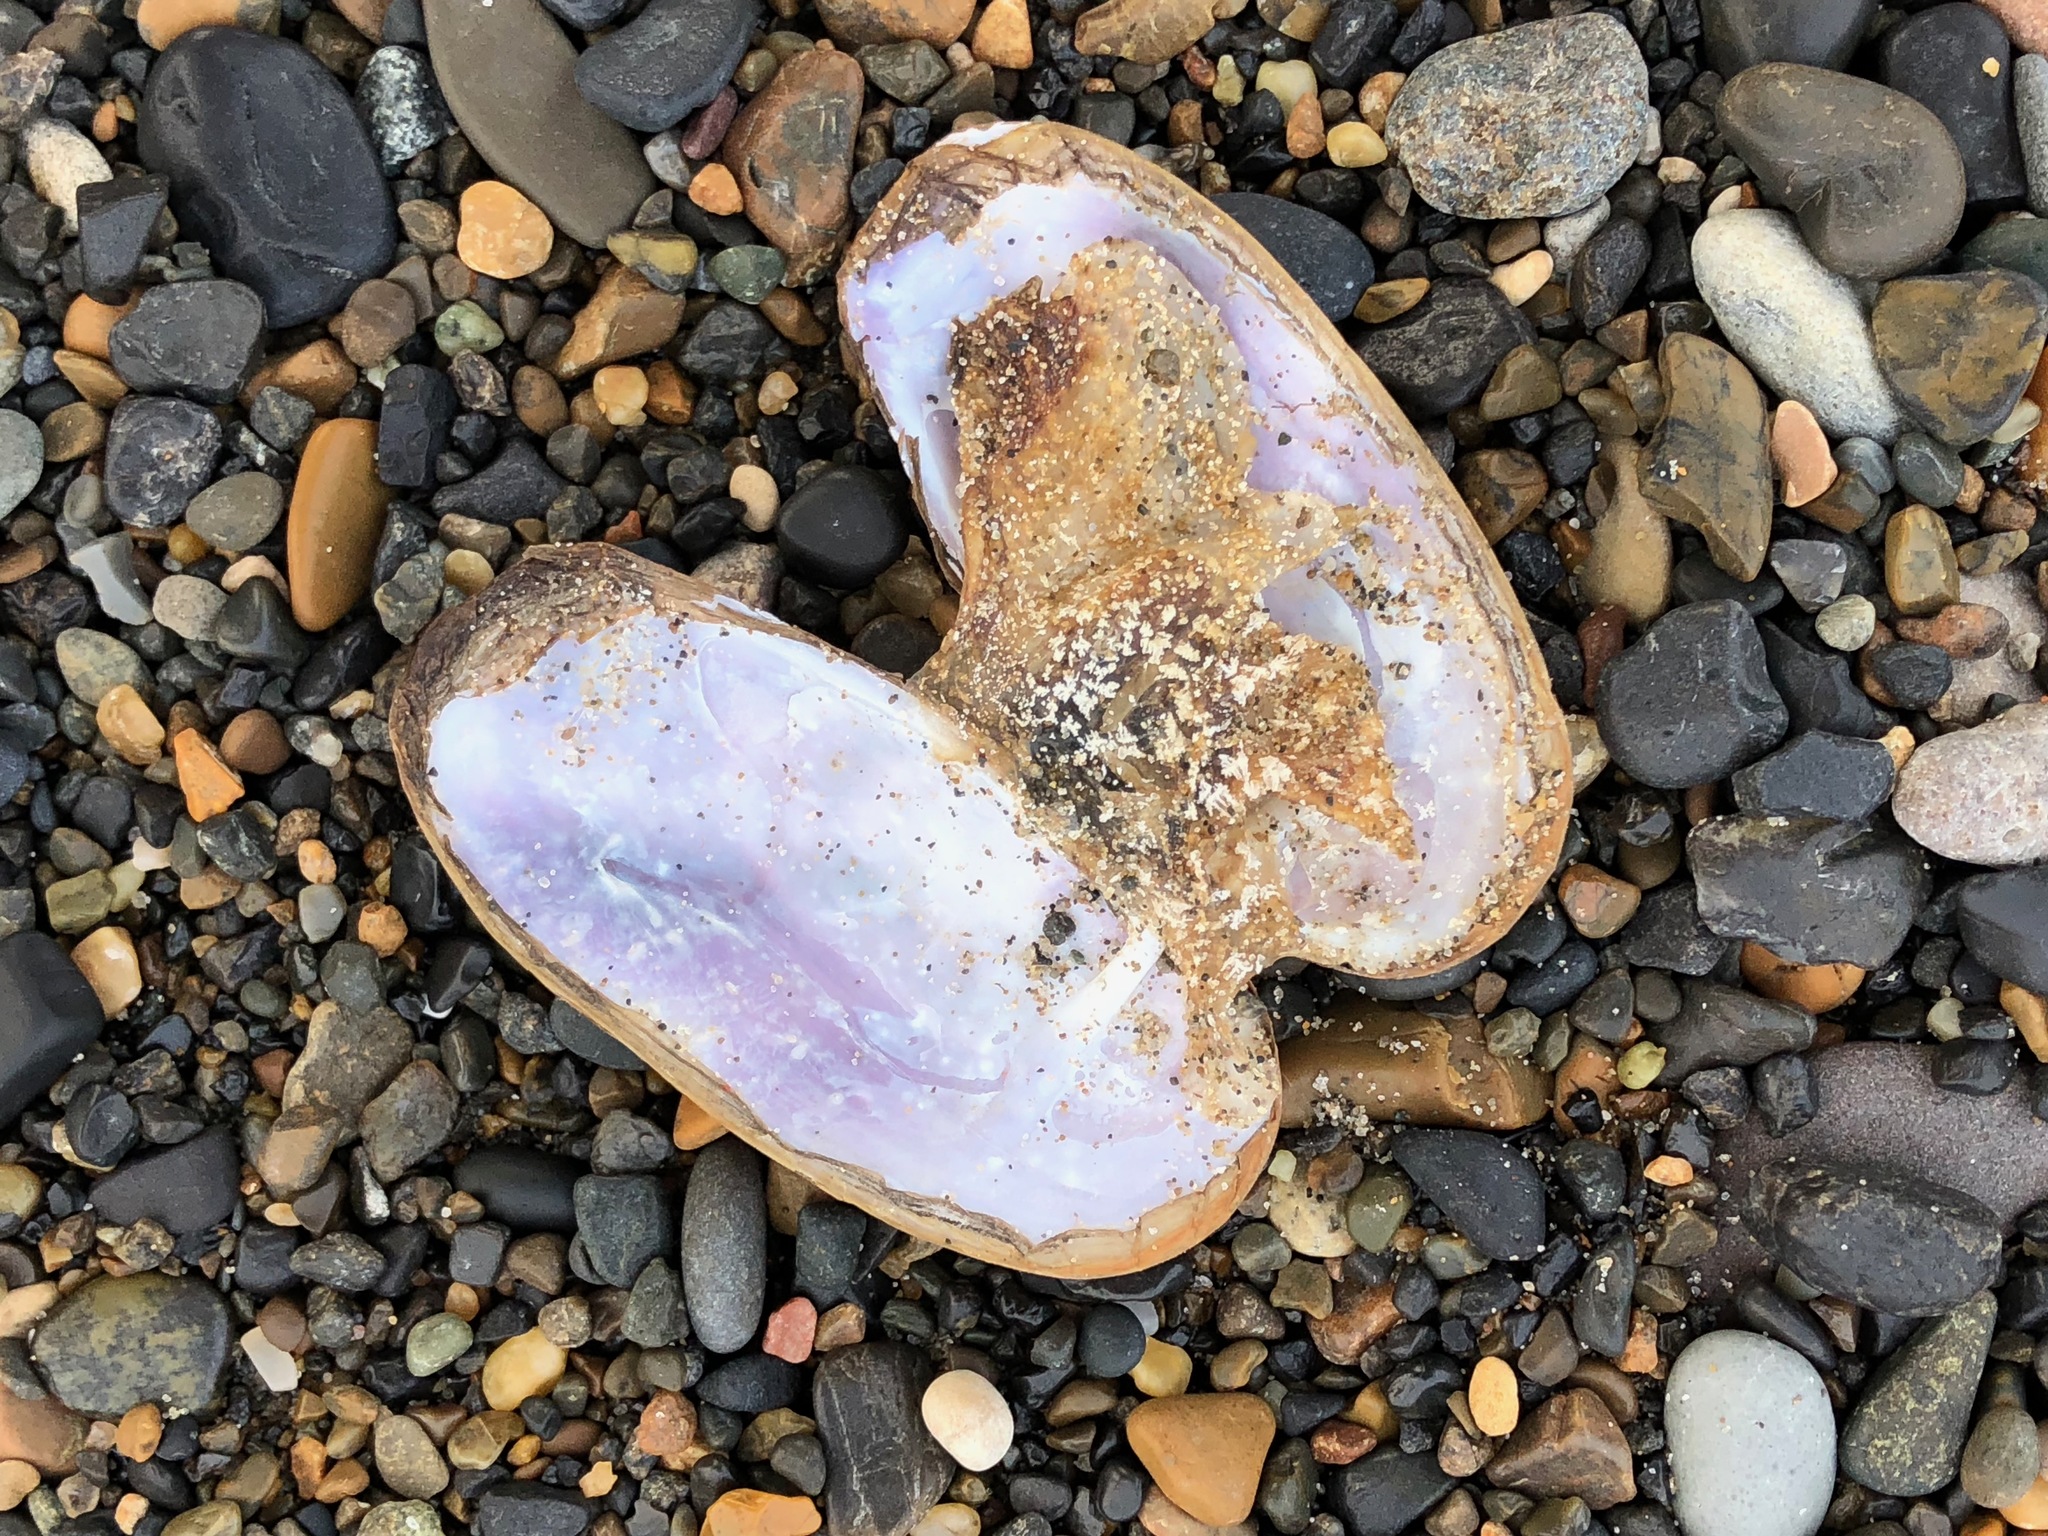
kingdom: Animalia
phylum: Mollusca
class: Bivalvia
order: Adapedonta
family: Pharidae
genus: Siliqua
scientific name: Siliqua alta
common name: Alaska razor
